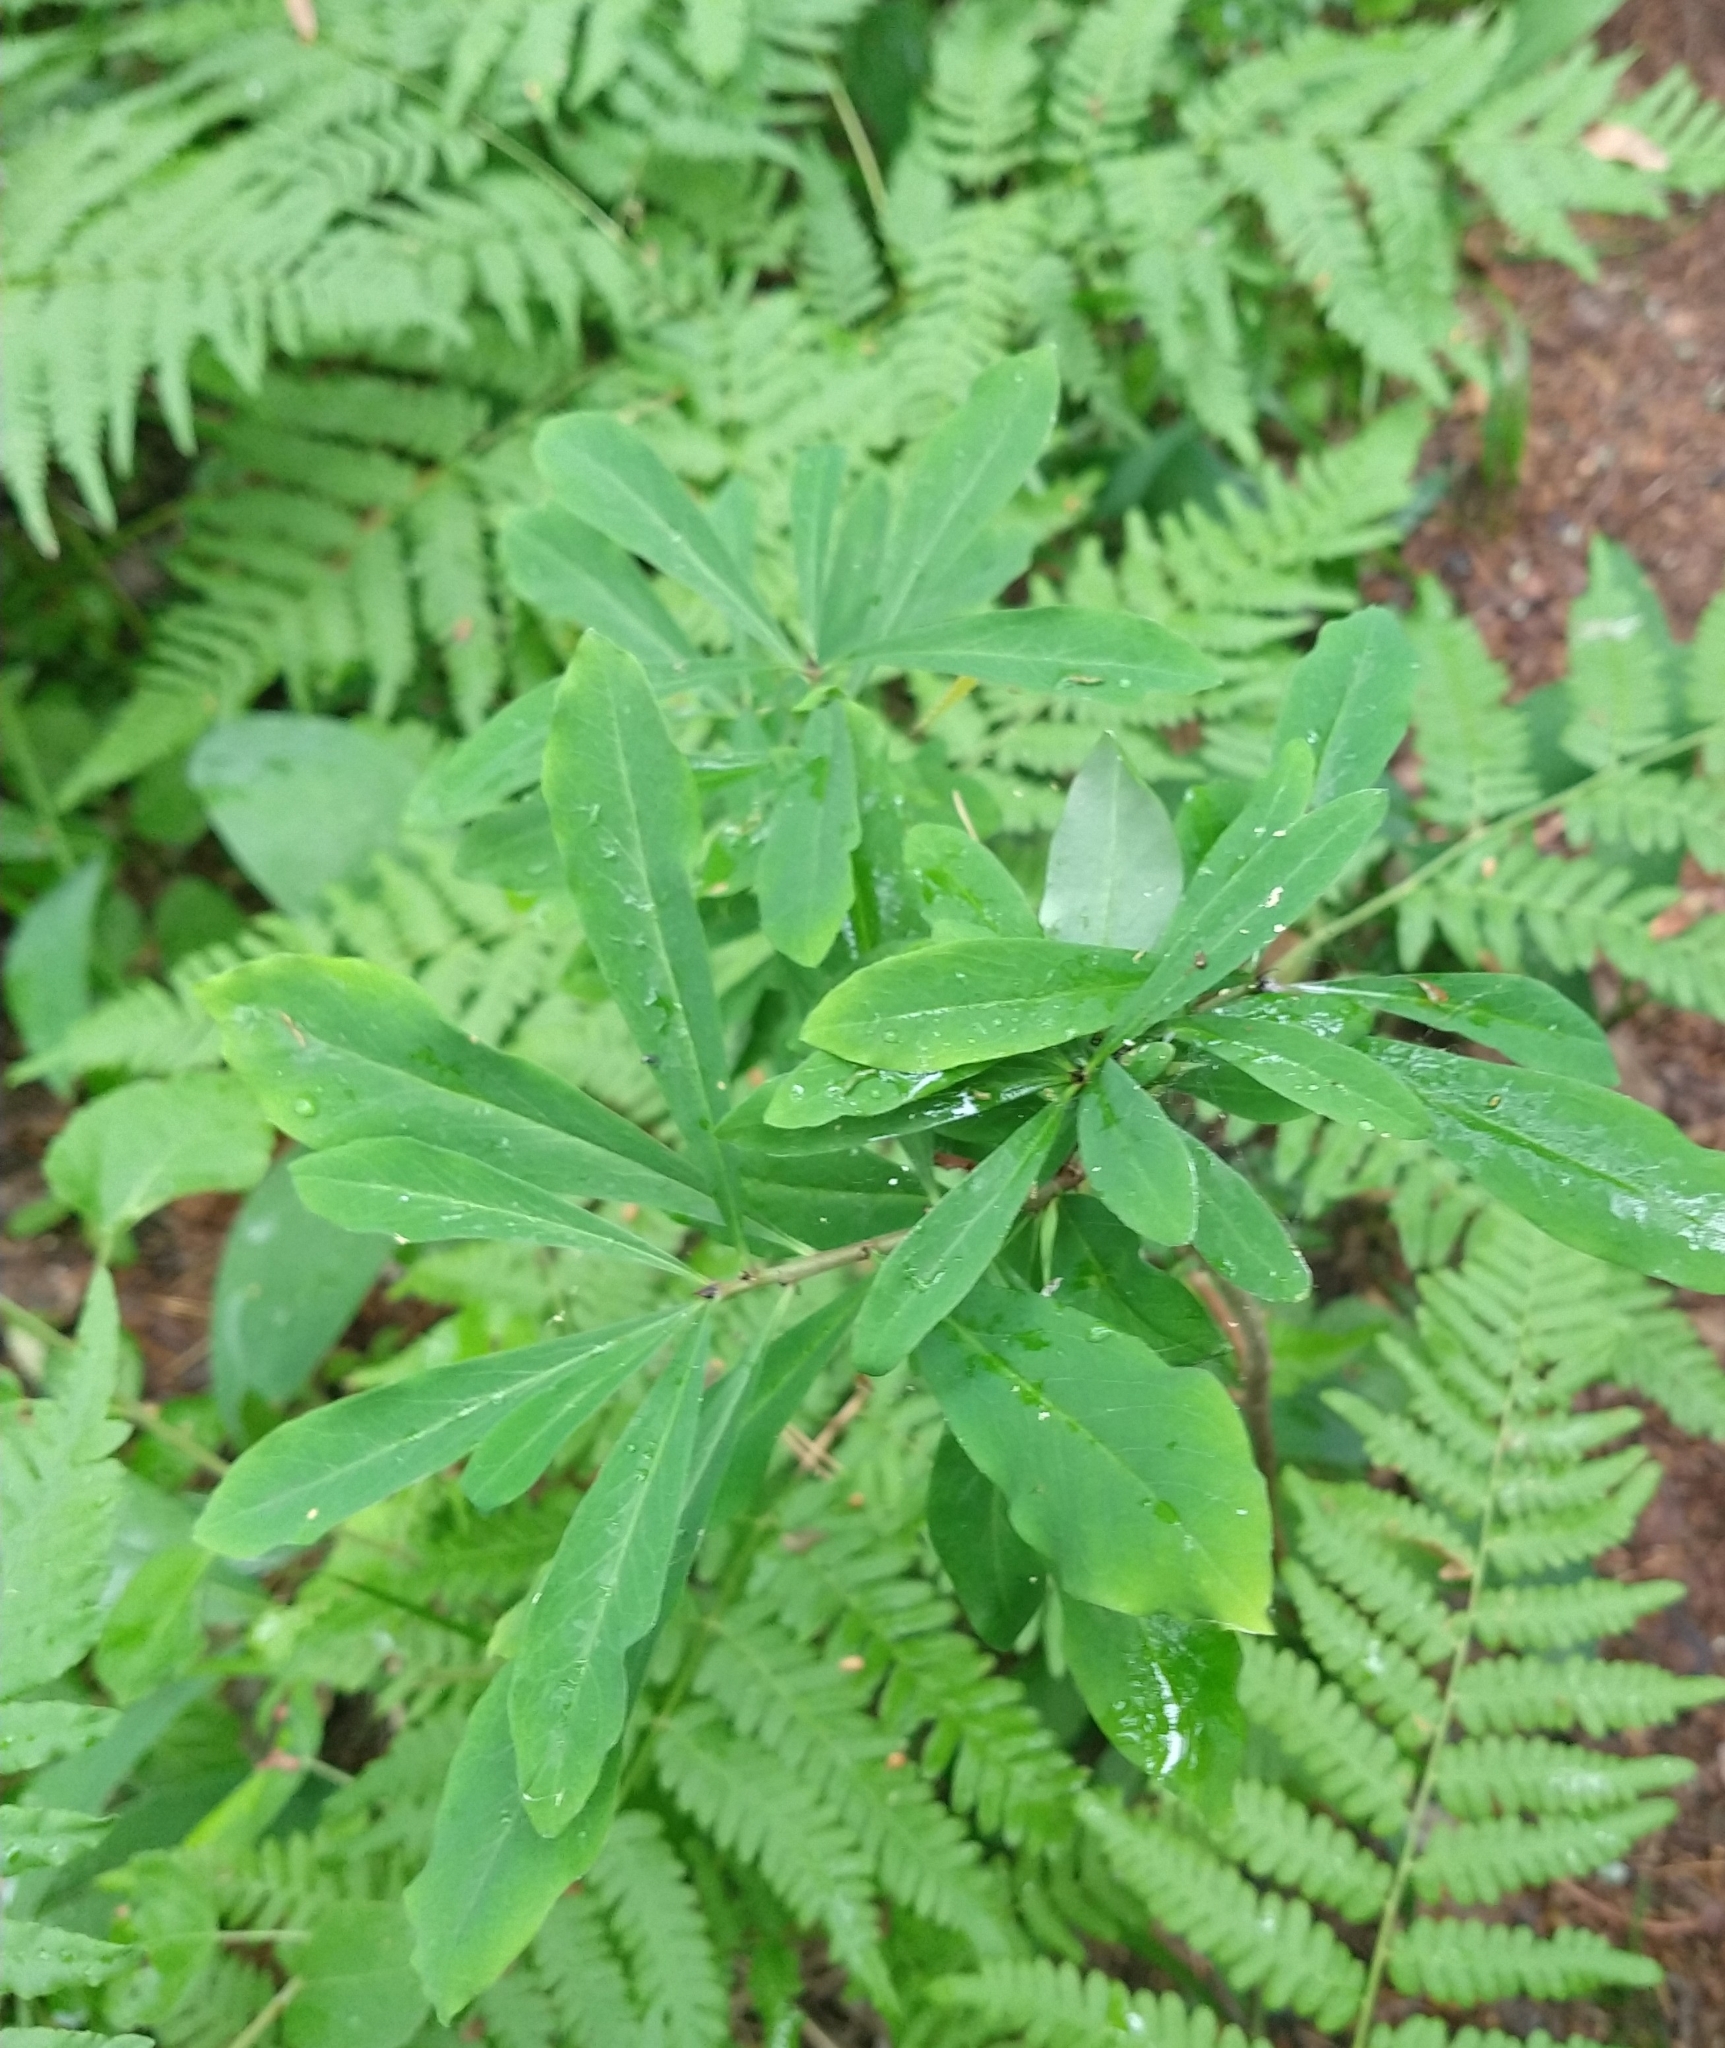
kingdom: Plantae
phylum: Tracheophyta
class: Magnoliopsida
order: Malvales
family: Thymelaeaceae
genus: Daphne
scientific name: Daphne mezereum
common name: Mezereon
